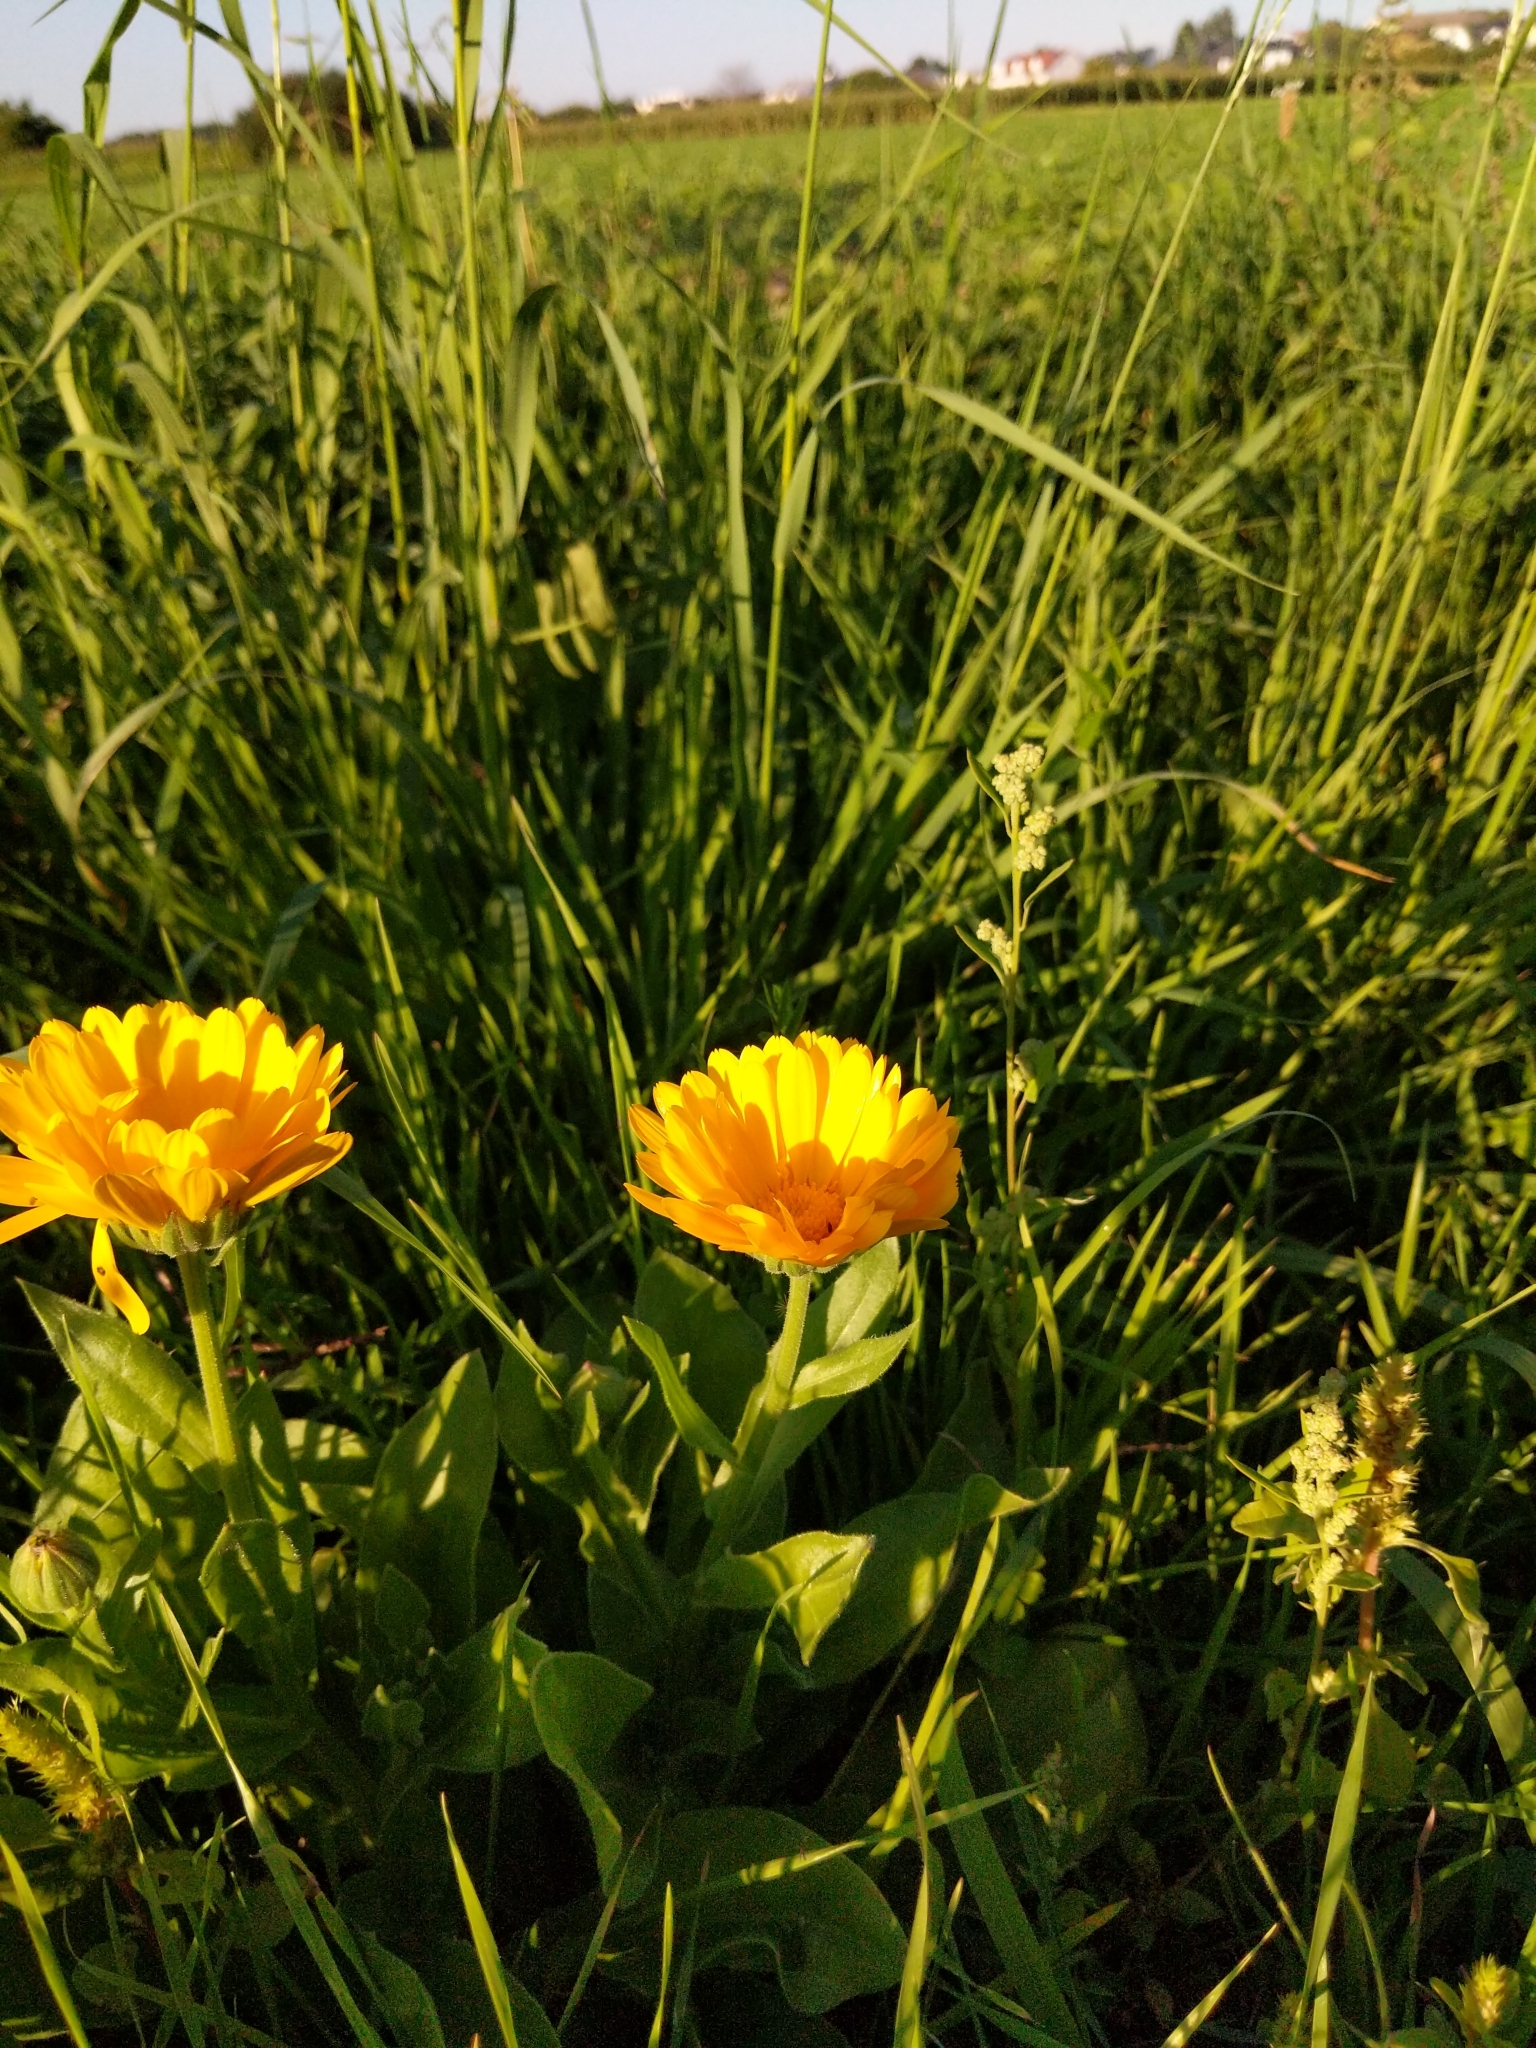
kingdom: Plantae
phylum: Tracheophyta
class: Magnoliopsida
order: Asterales
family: Asteraceae
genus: Calendula
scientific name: Calendula officinalis
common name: Pot marigold
